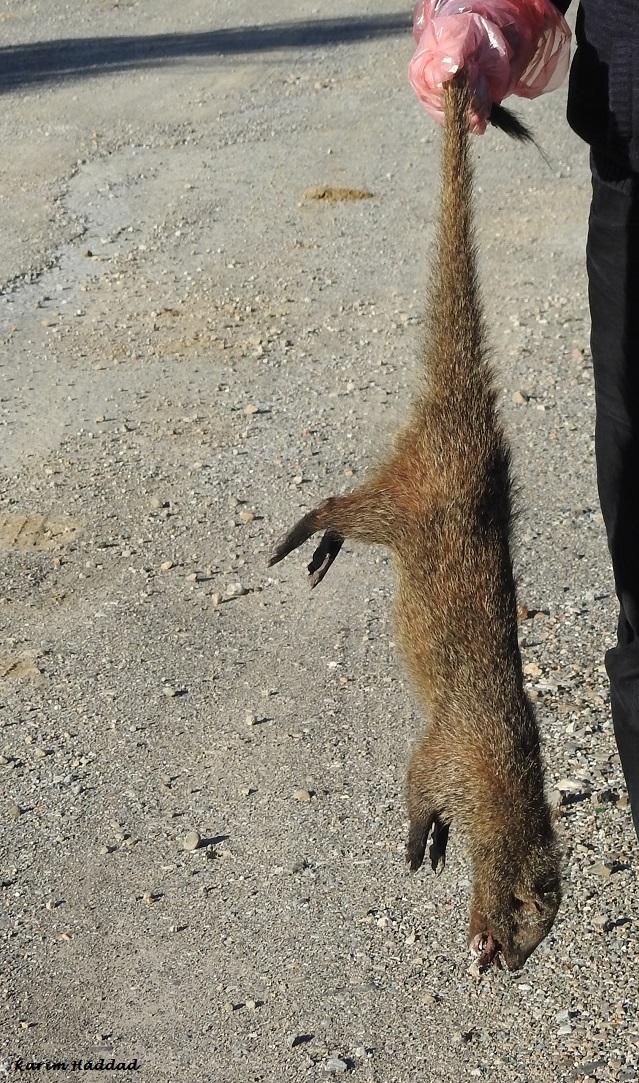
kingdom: Animalia
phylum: Chordata
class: Mammalia
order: Carnivora
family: Herpestidae
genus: Herpestes
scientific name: Herpestes ichneumon
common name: Egyptian mongoose
